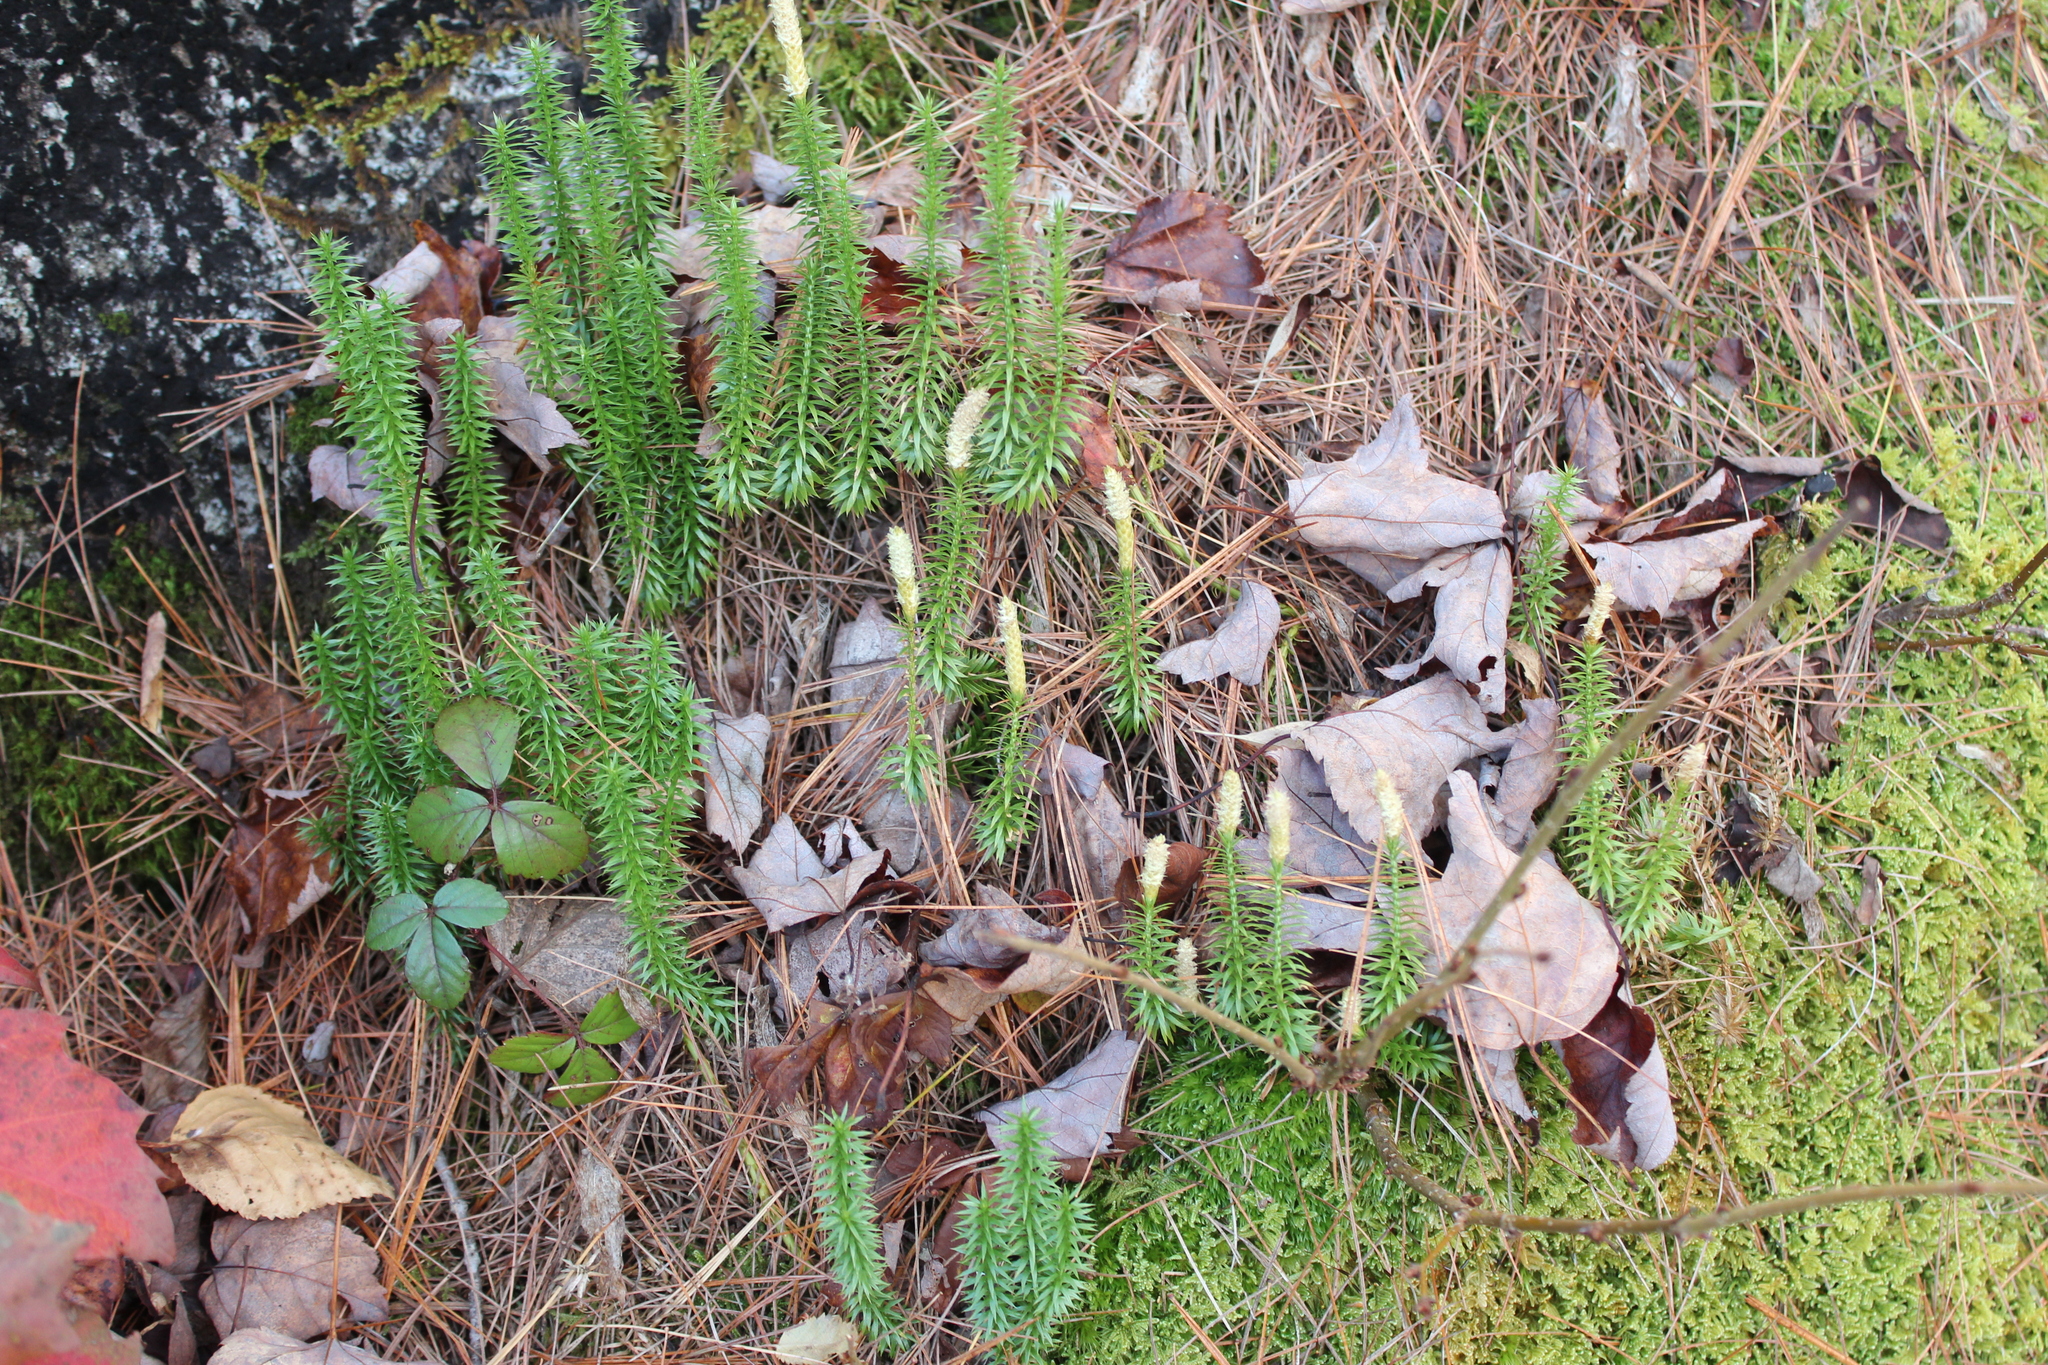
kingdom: Plantae
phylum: Tracheophyta
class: Lycopodiopsida
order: Lycopodiales
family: Lycopodiaceae
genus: Spinulum
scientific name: Spinulum annotinum
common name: Interrupted club-moss
